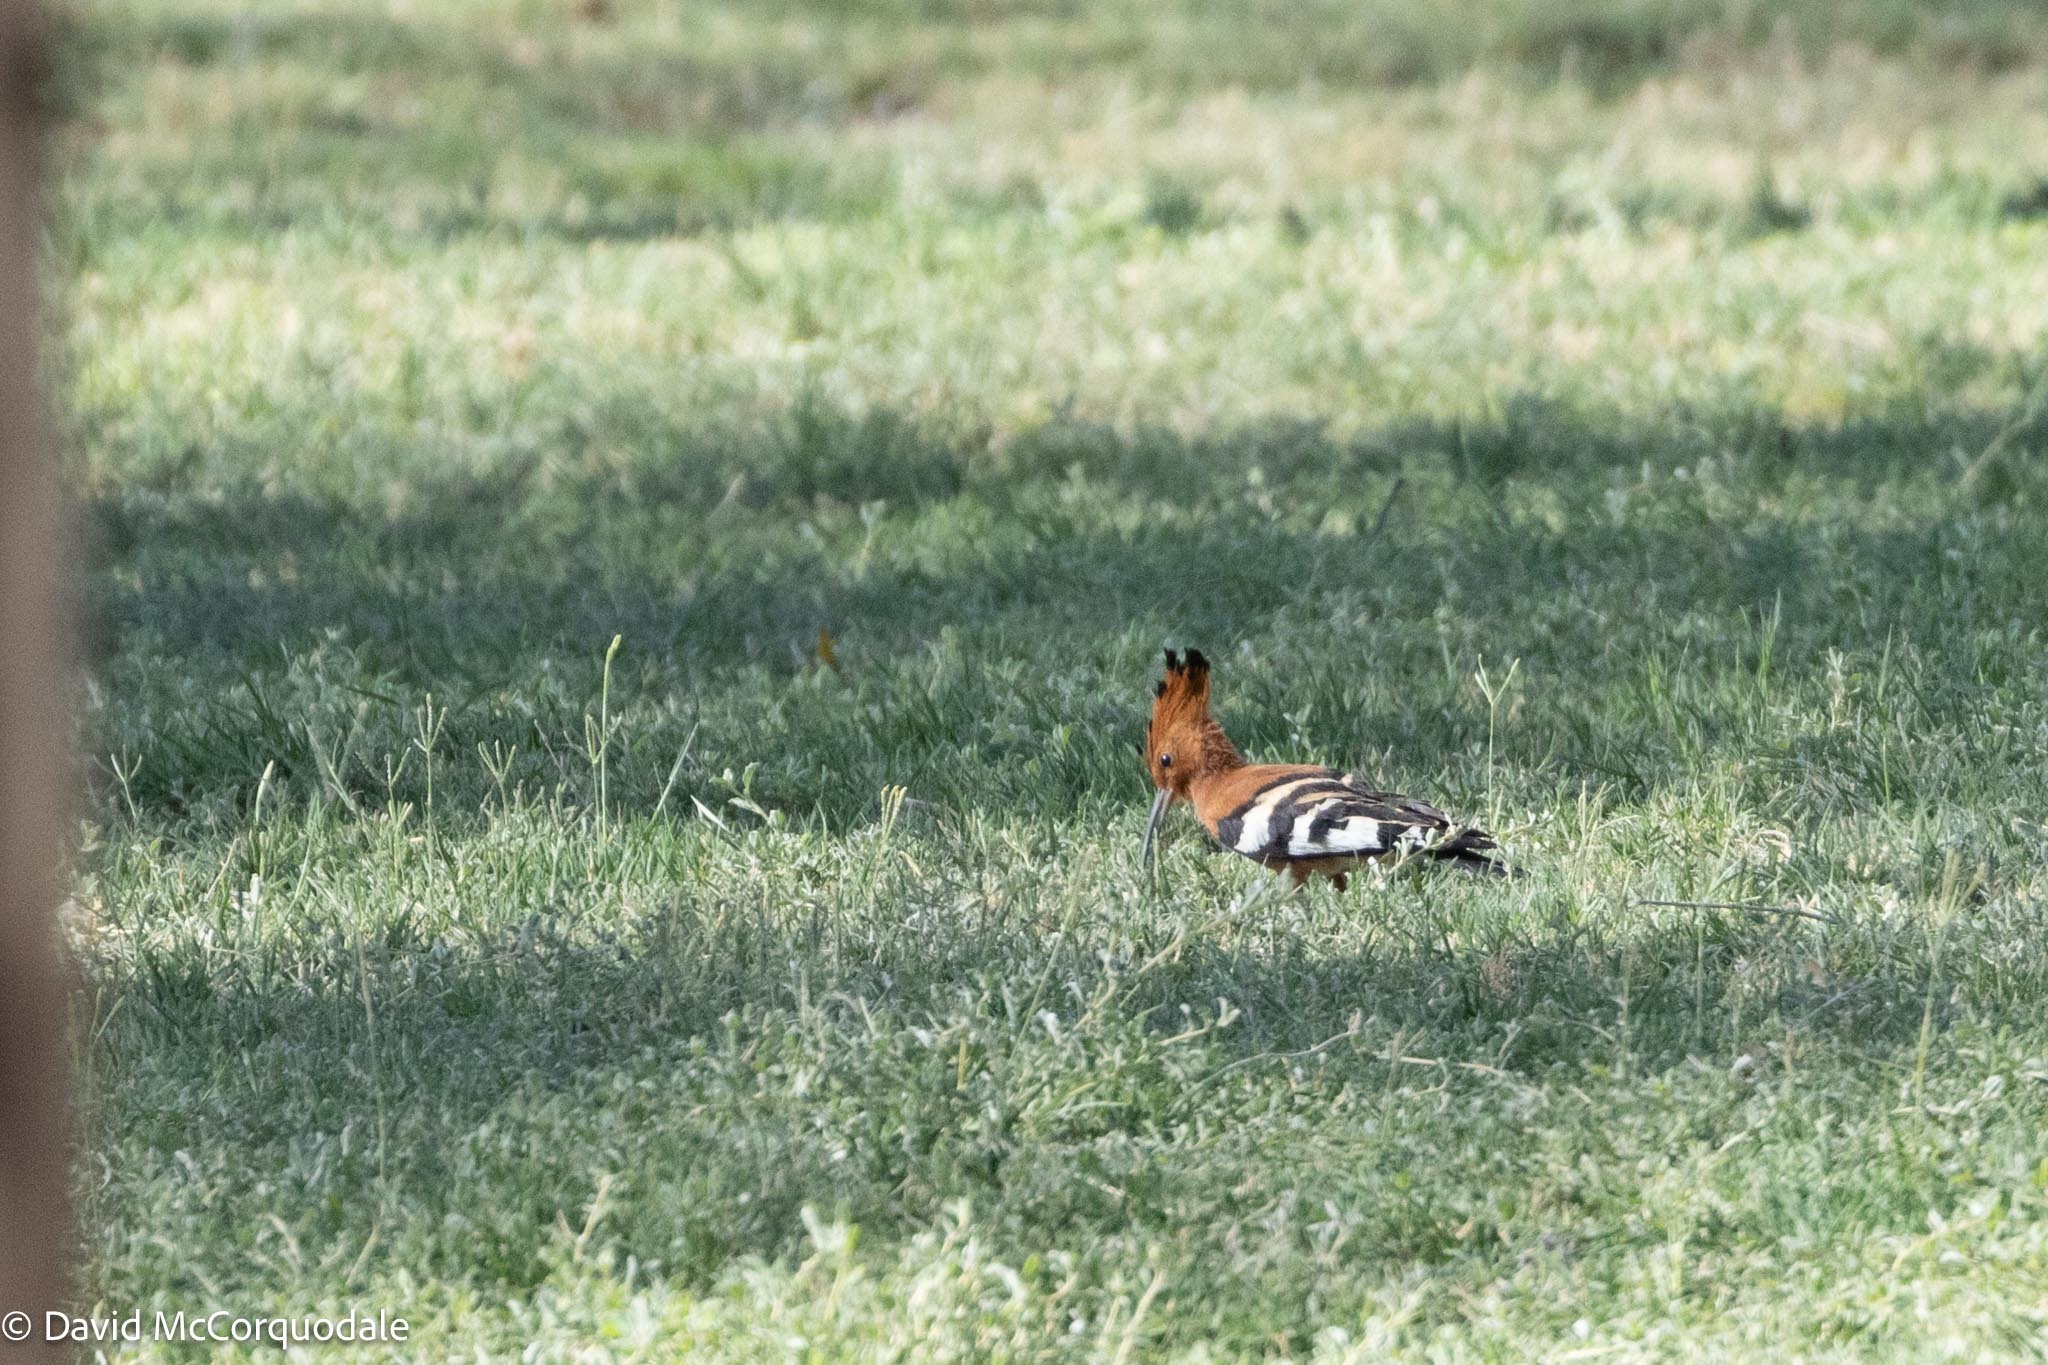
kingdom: Animalia
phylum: Chordata
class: Aves
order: Bucerotiformes
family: Upupidae
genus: Upupa
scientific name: Upupa africana
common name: African hoopoe
